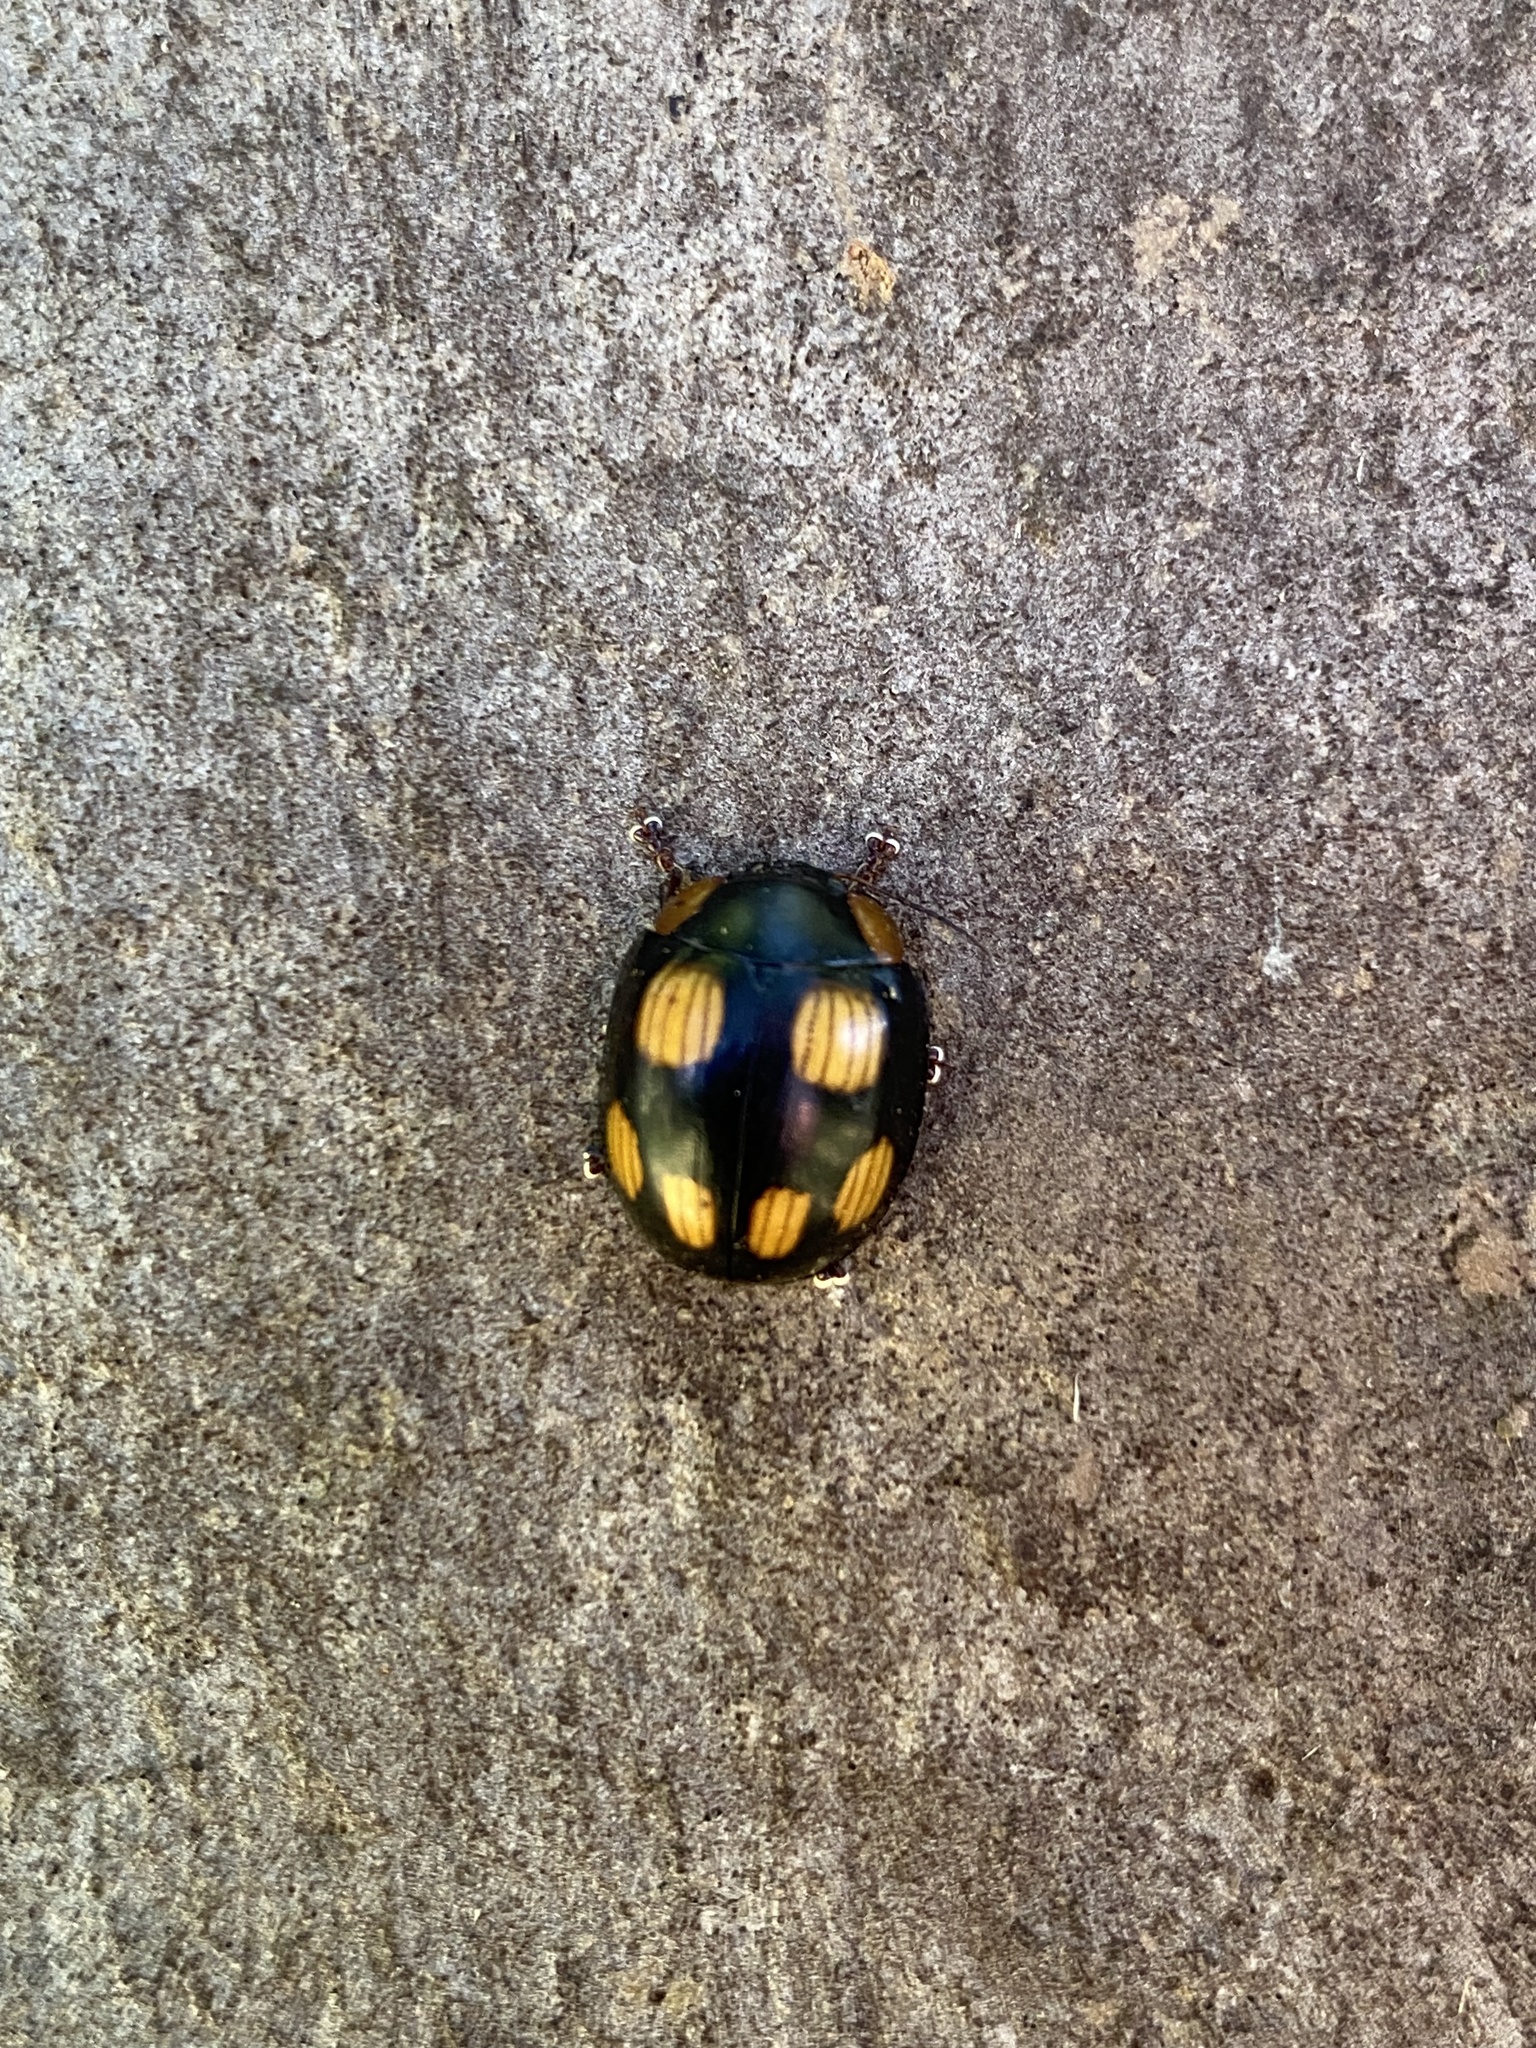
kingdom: Animalia
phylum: Arthropoda
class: Insecta
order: Coleoptera
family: Chrysomelidae
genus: Paropsisterna
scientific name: Paropsisterna
